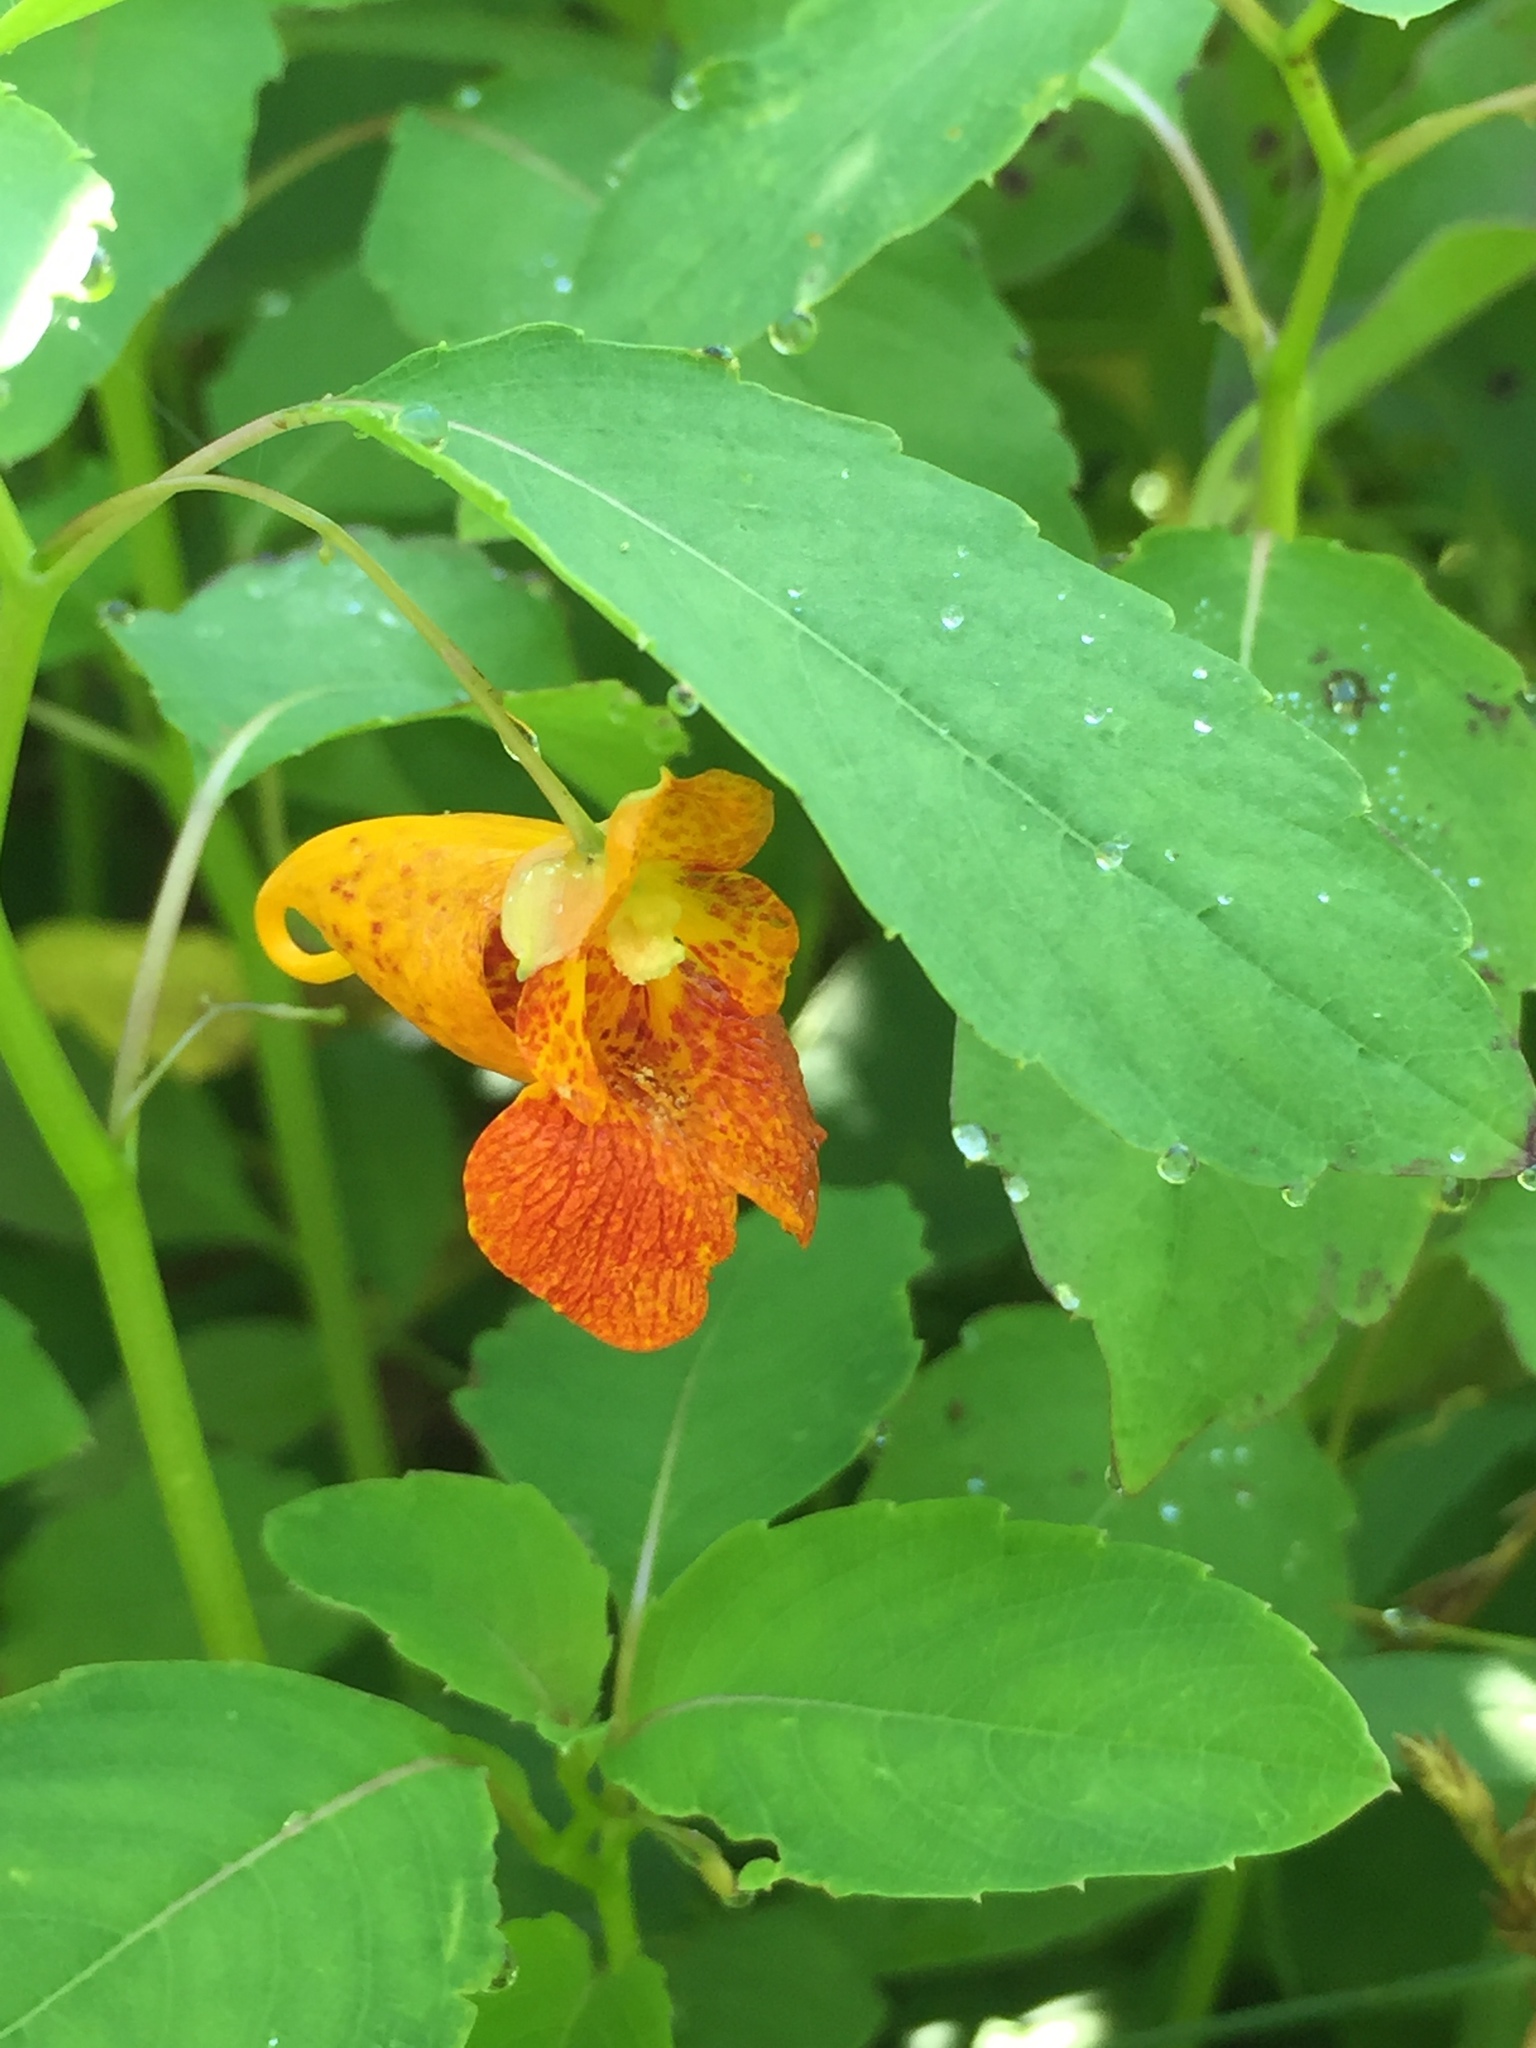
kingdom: Plantae
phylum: Tracheophyta
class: Magnoliopsida
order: Ericales
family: Balsaminaceae
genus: Impatiens
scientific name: Impatiens capensis
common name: Orange balsam
